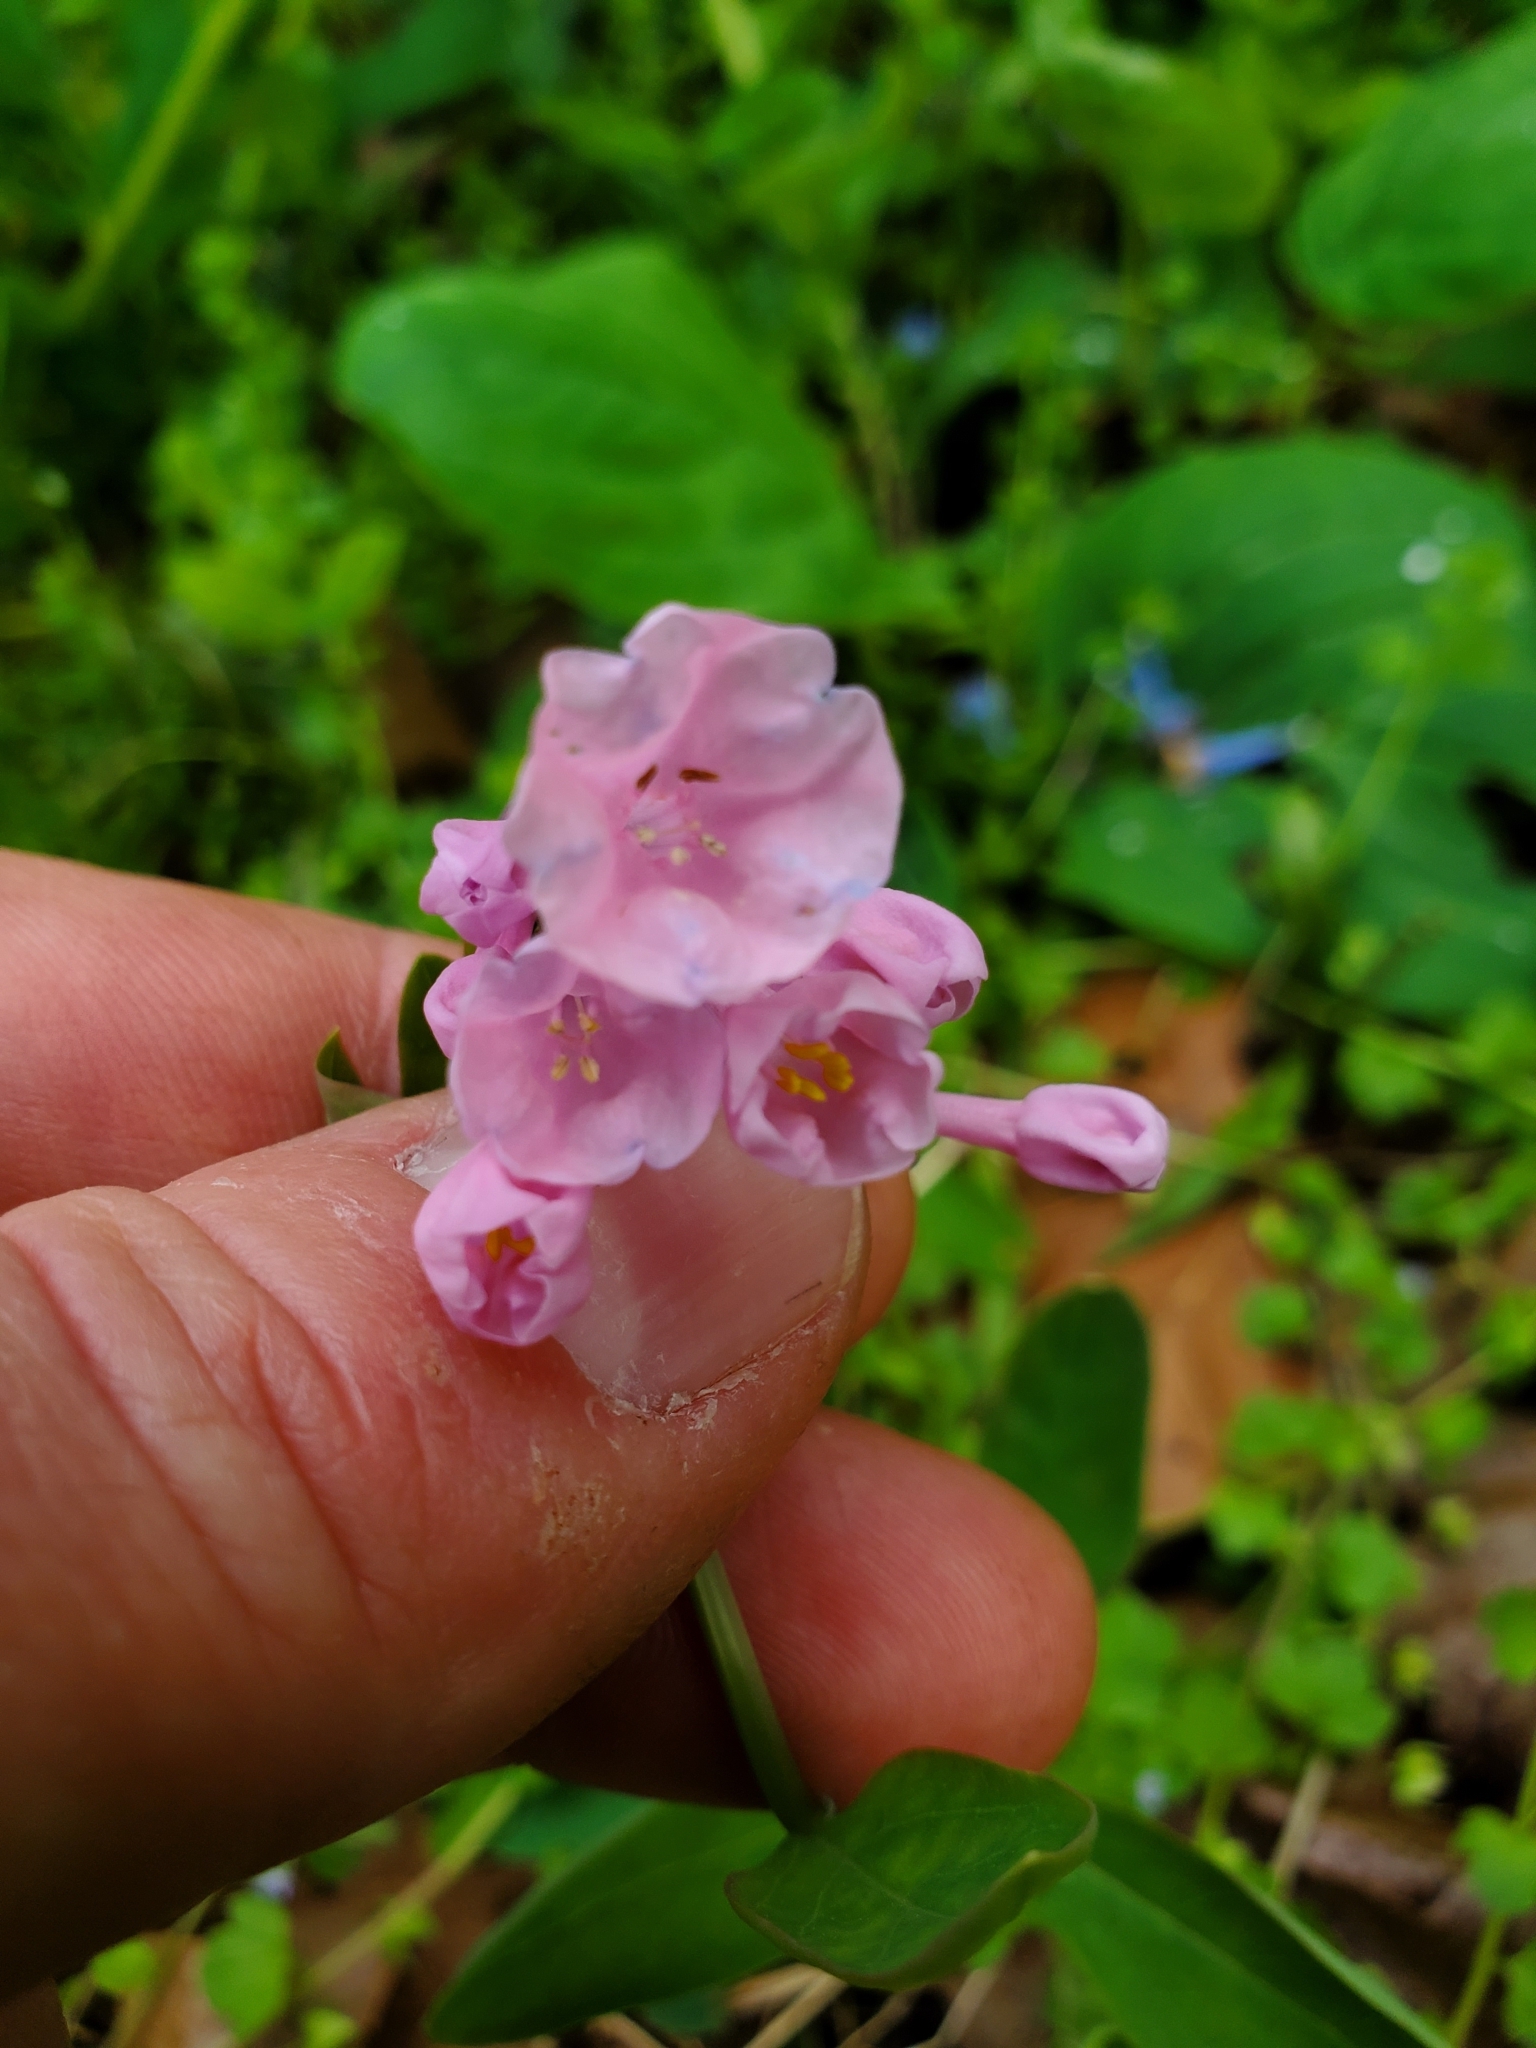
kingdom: Plantae
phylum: Tracheophyta
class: Magnoliopsida
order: Boraginales
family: Boraginaceae
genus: Mertensia
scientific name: Mertensia virginica
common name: Virginia bluebells
